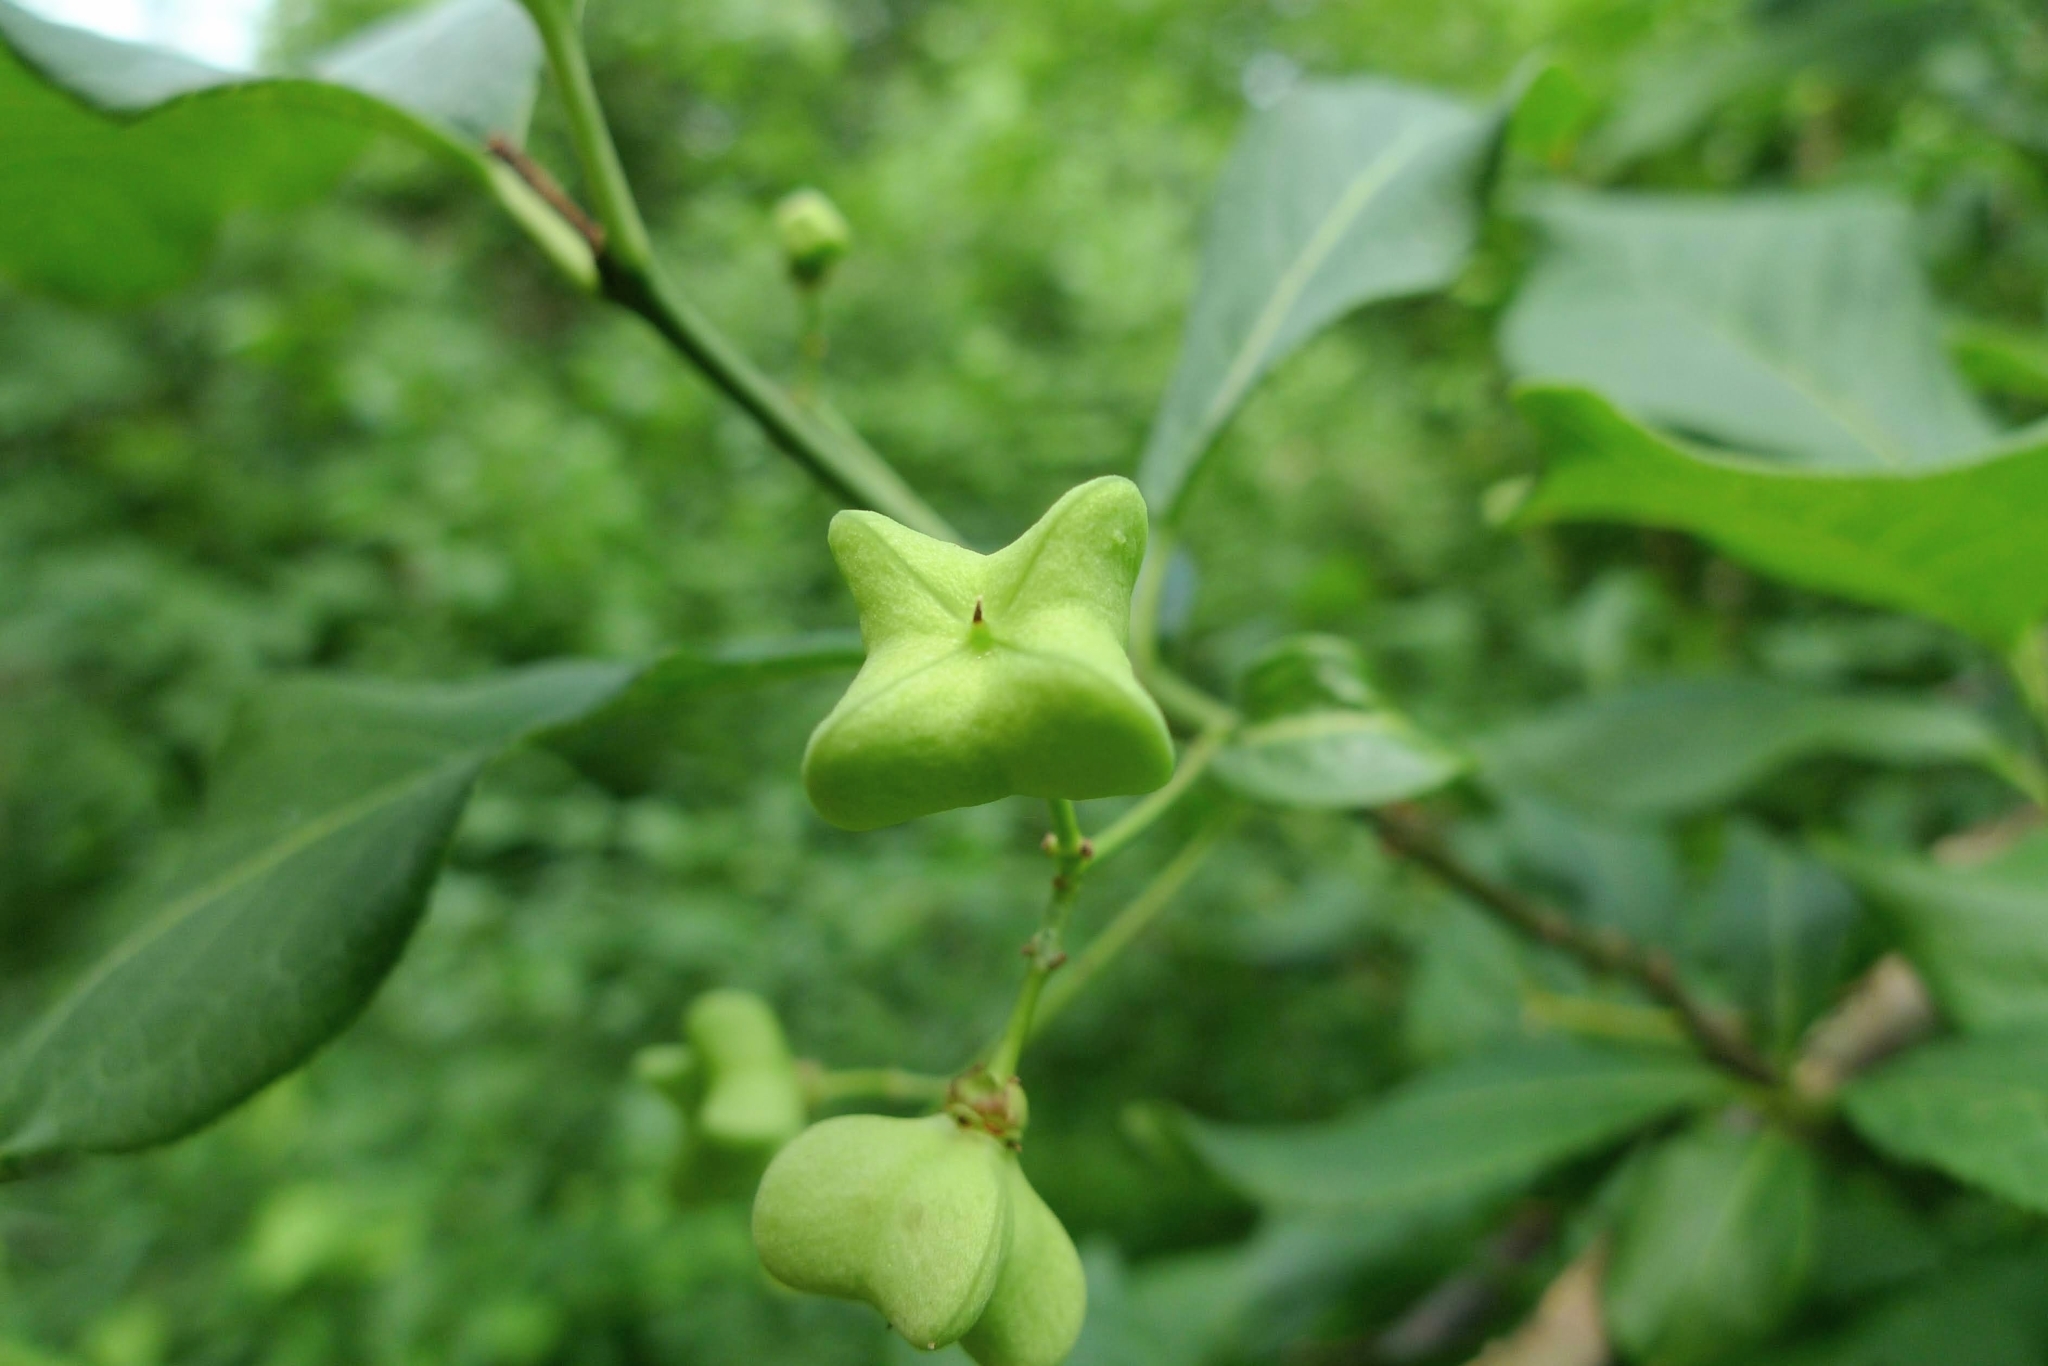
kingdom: Plantae
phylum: Tracheophyta
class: Magnoliopsida
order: Celastrales
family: Celastraceae
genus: Euonymus
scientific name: Euonymus europaeus
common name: Spindle
